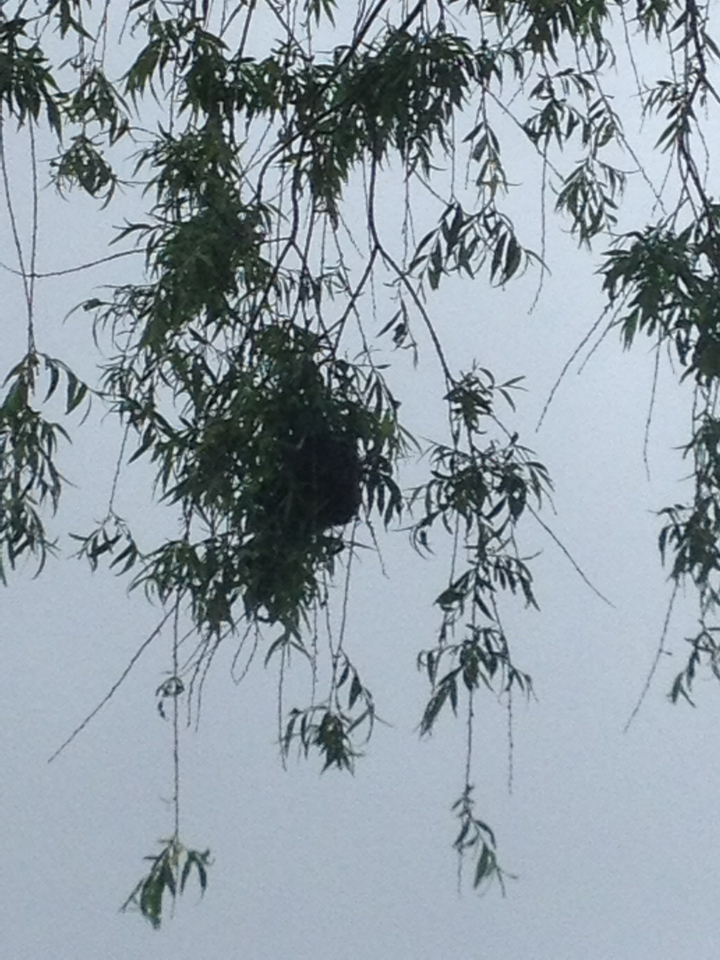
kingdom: Animalia
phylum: Chordata
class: Aves
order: Passeriformes
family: Icteridae
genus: Icterus
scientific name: Icterus galbula
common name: Baltimore oriole
